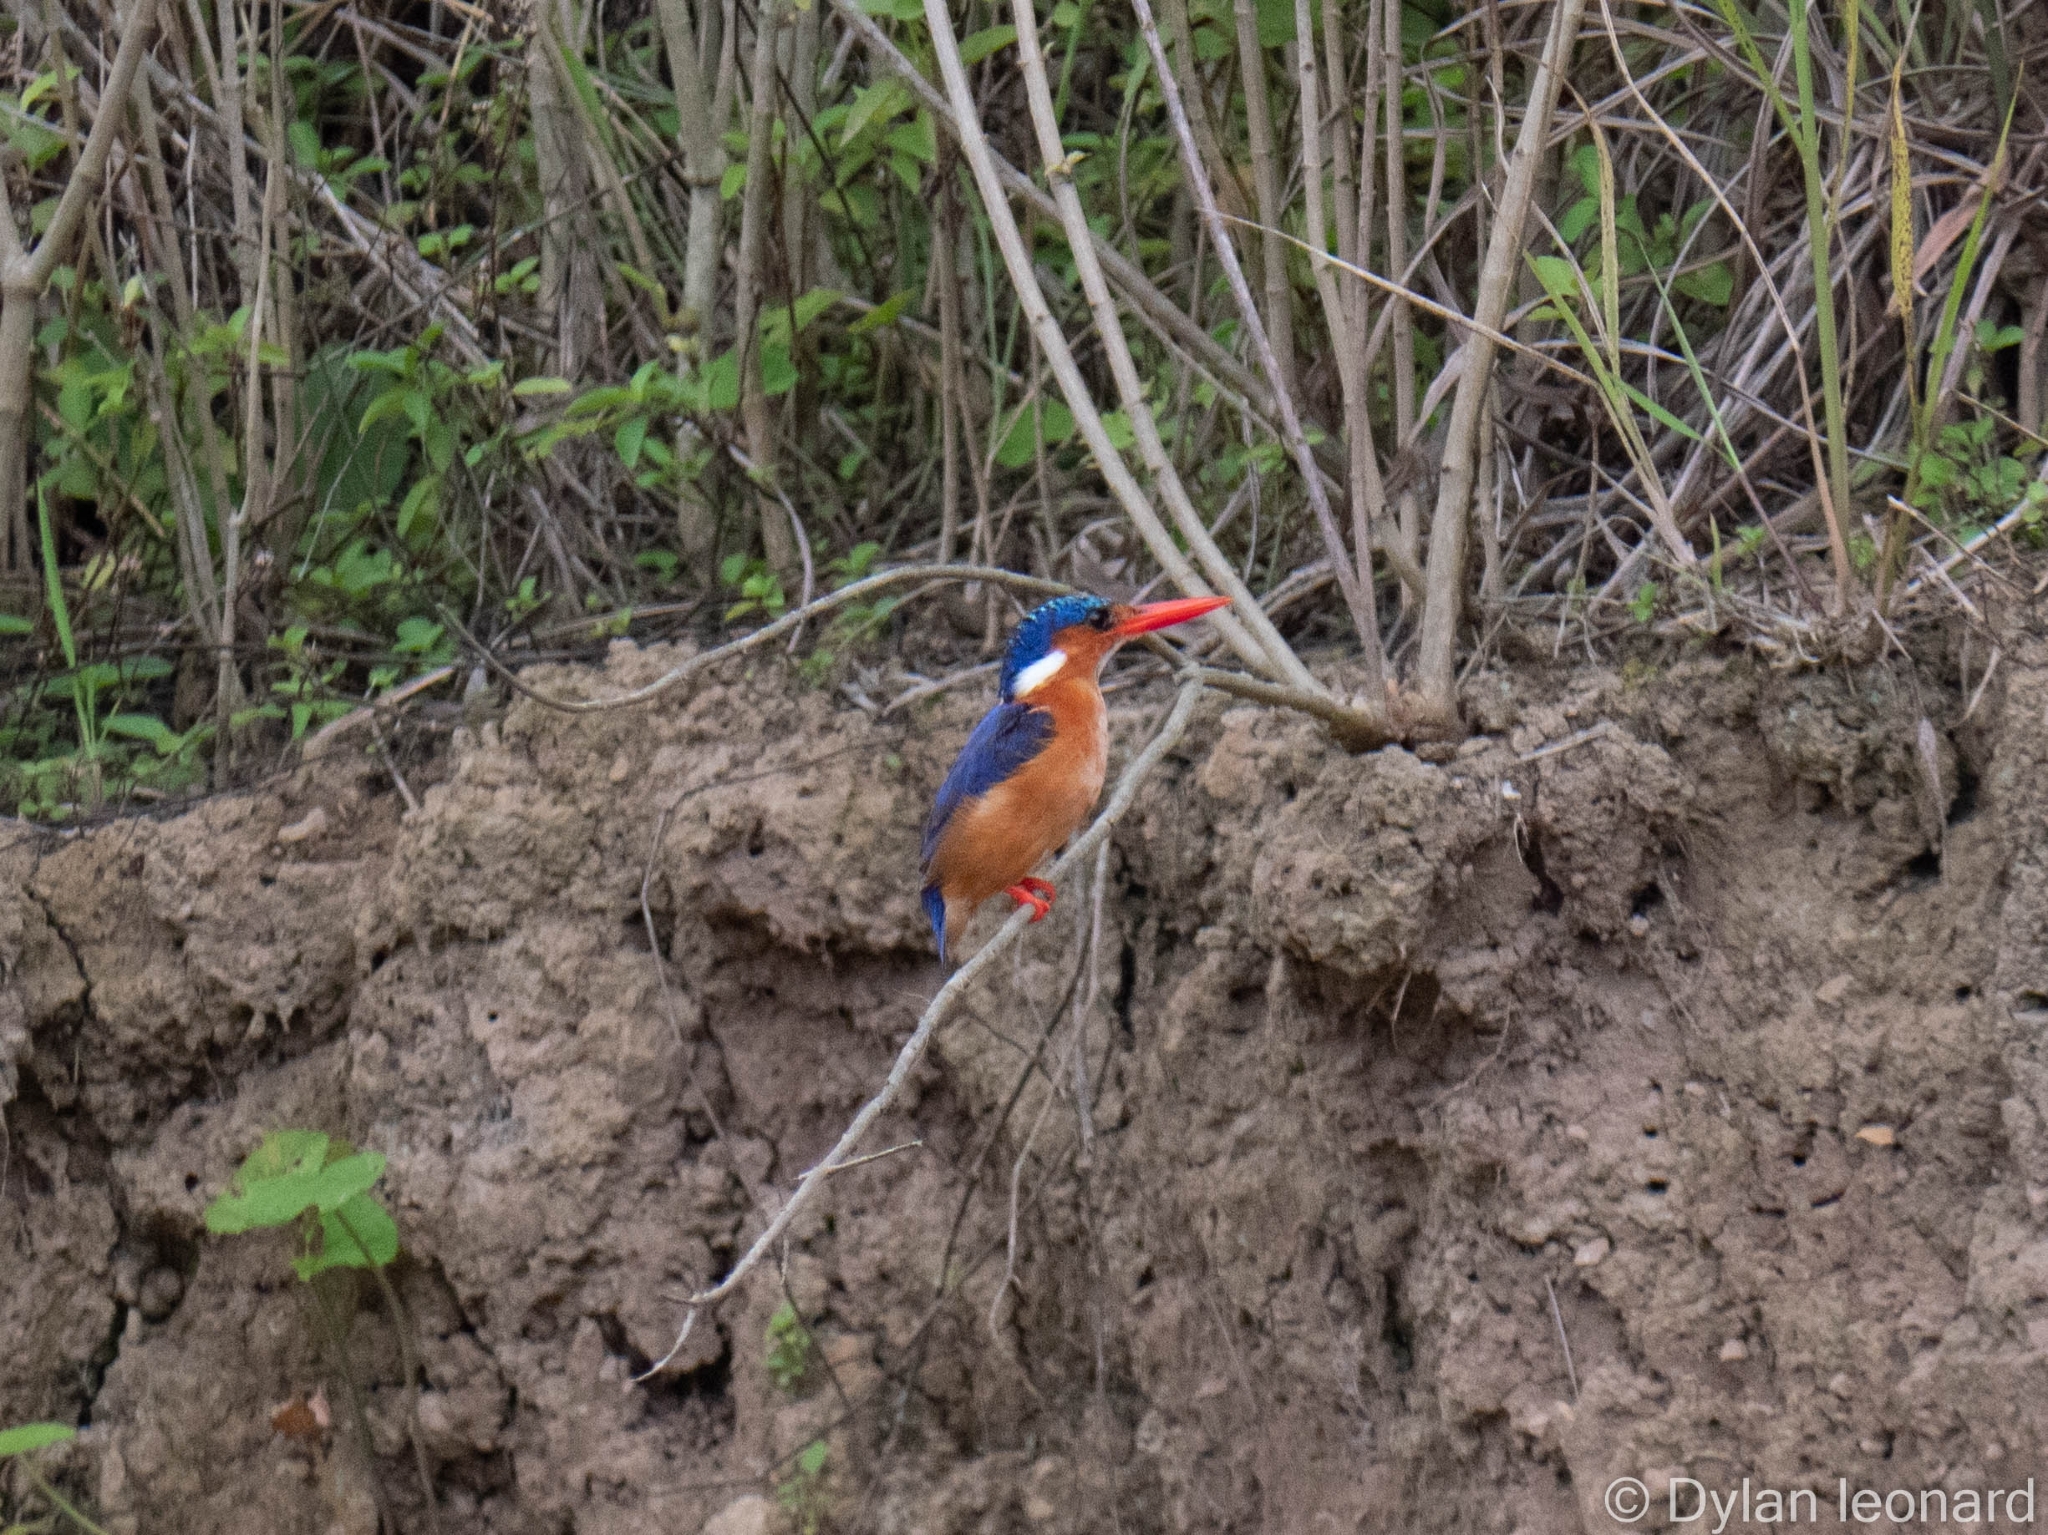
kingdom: Animalia
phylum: Chordata
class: Aves
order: Coraciiformes
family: Alcedinidae
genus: Corythornis
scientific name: Corythornis cristatus
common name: Malachite kingfisher
